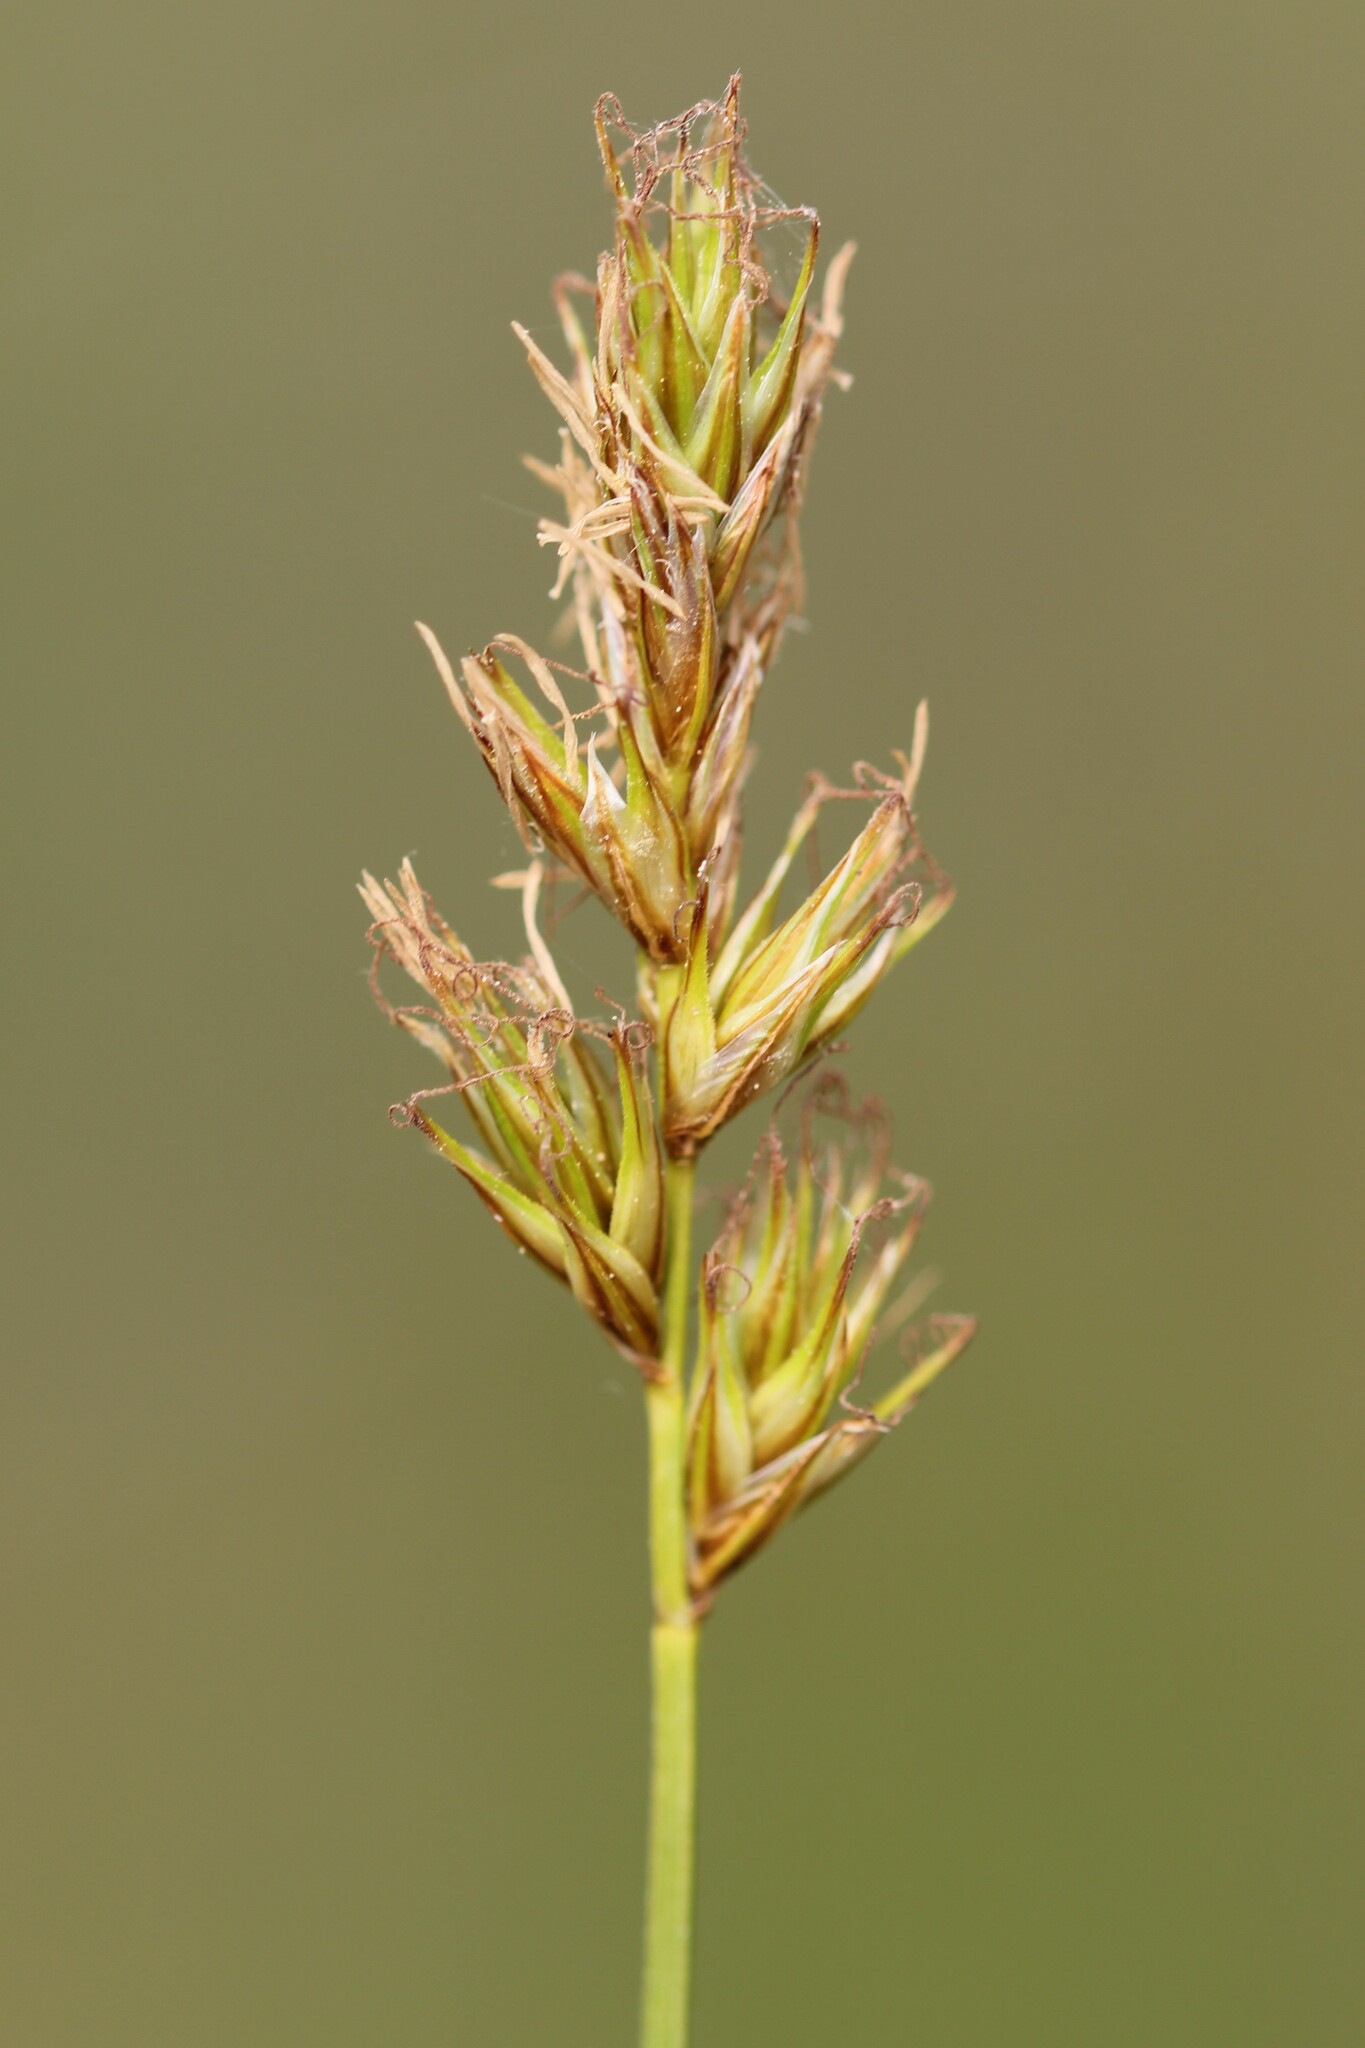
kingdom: Plantae
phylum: Tracheophyta
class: Liliopsida
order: Poales
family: Cyperaceae
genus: Carex
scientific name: Carex siccata
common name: Dry sedge
